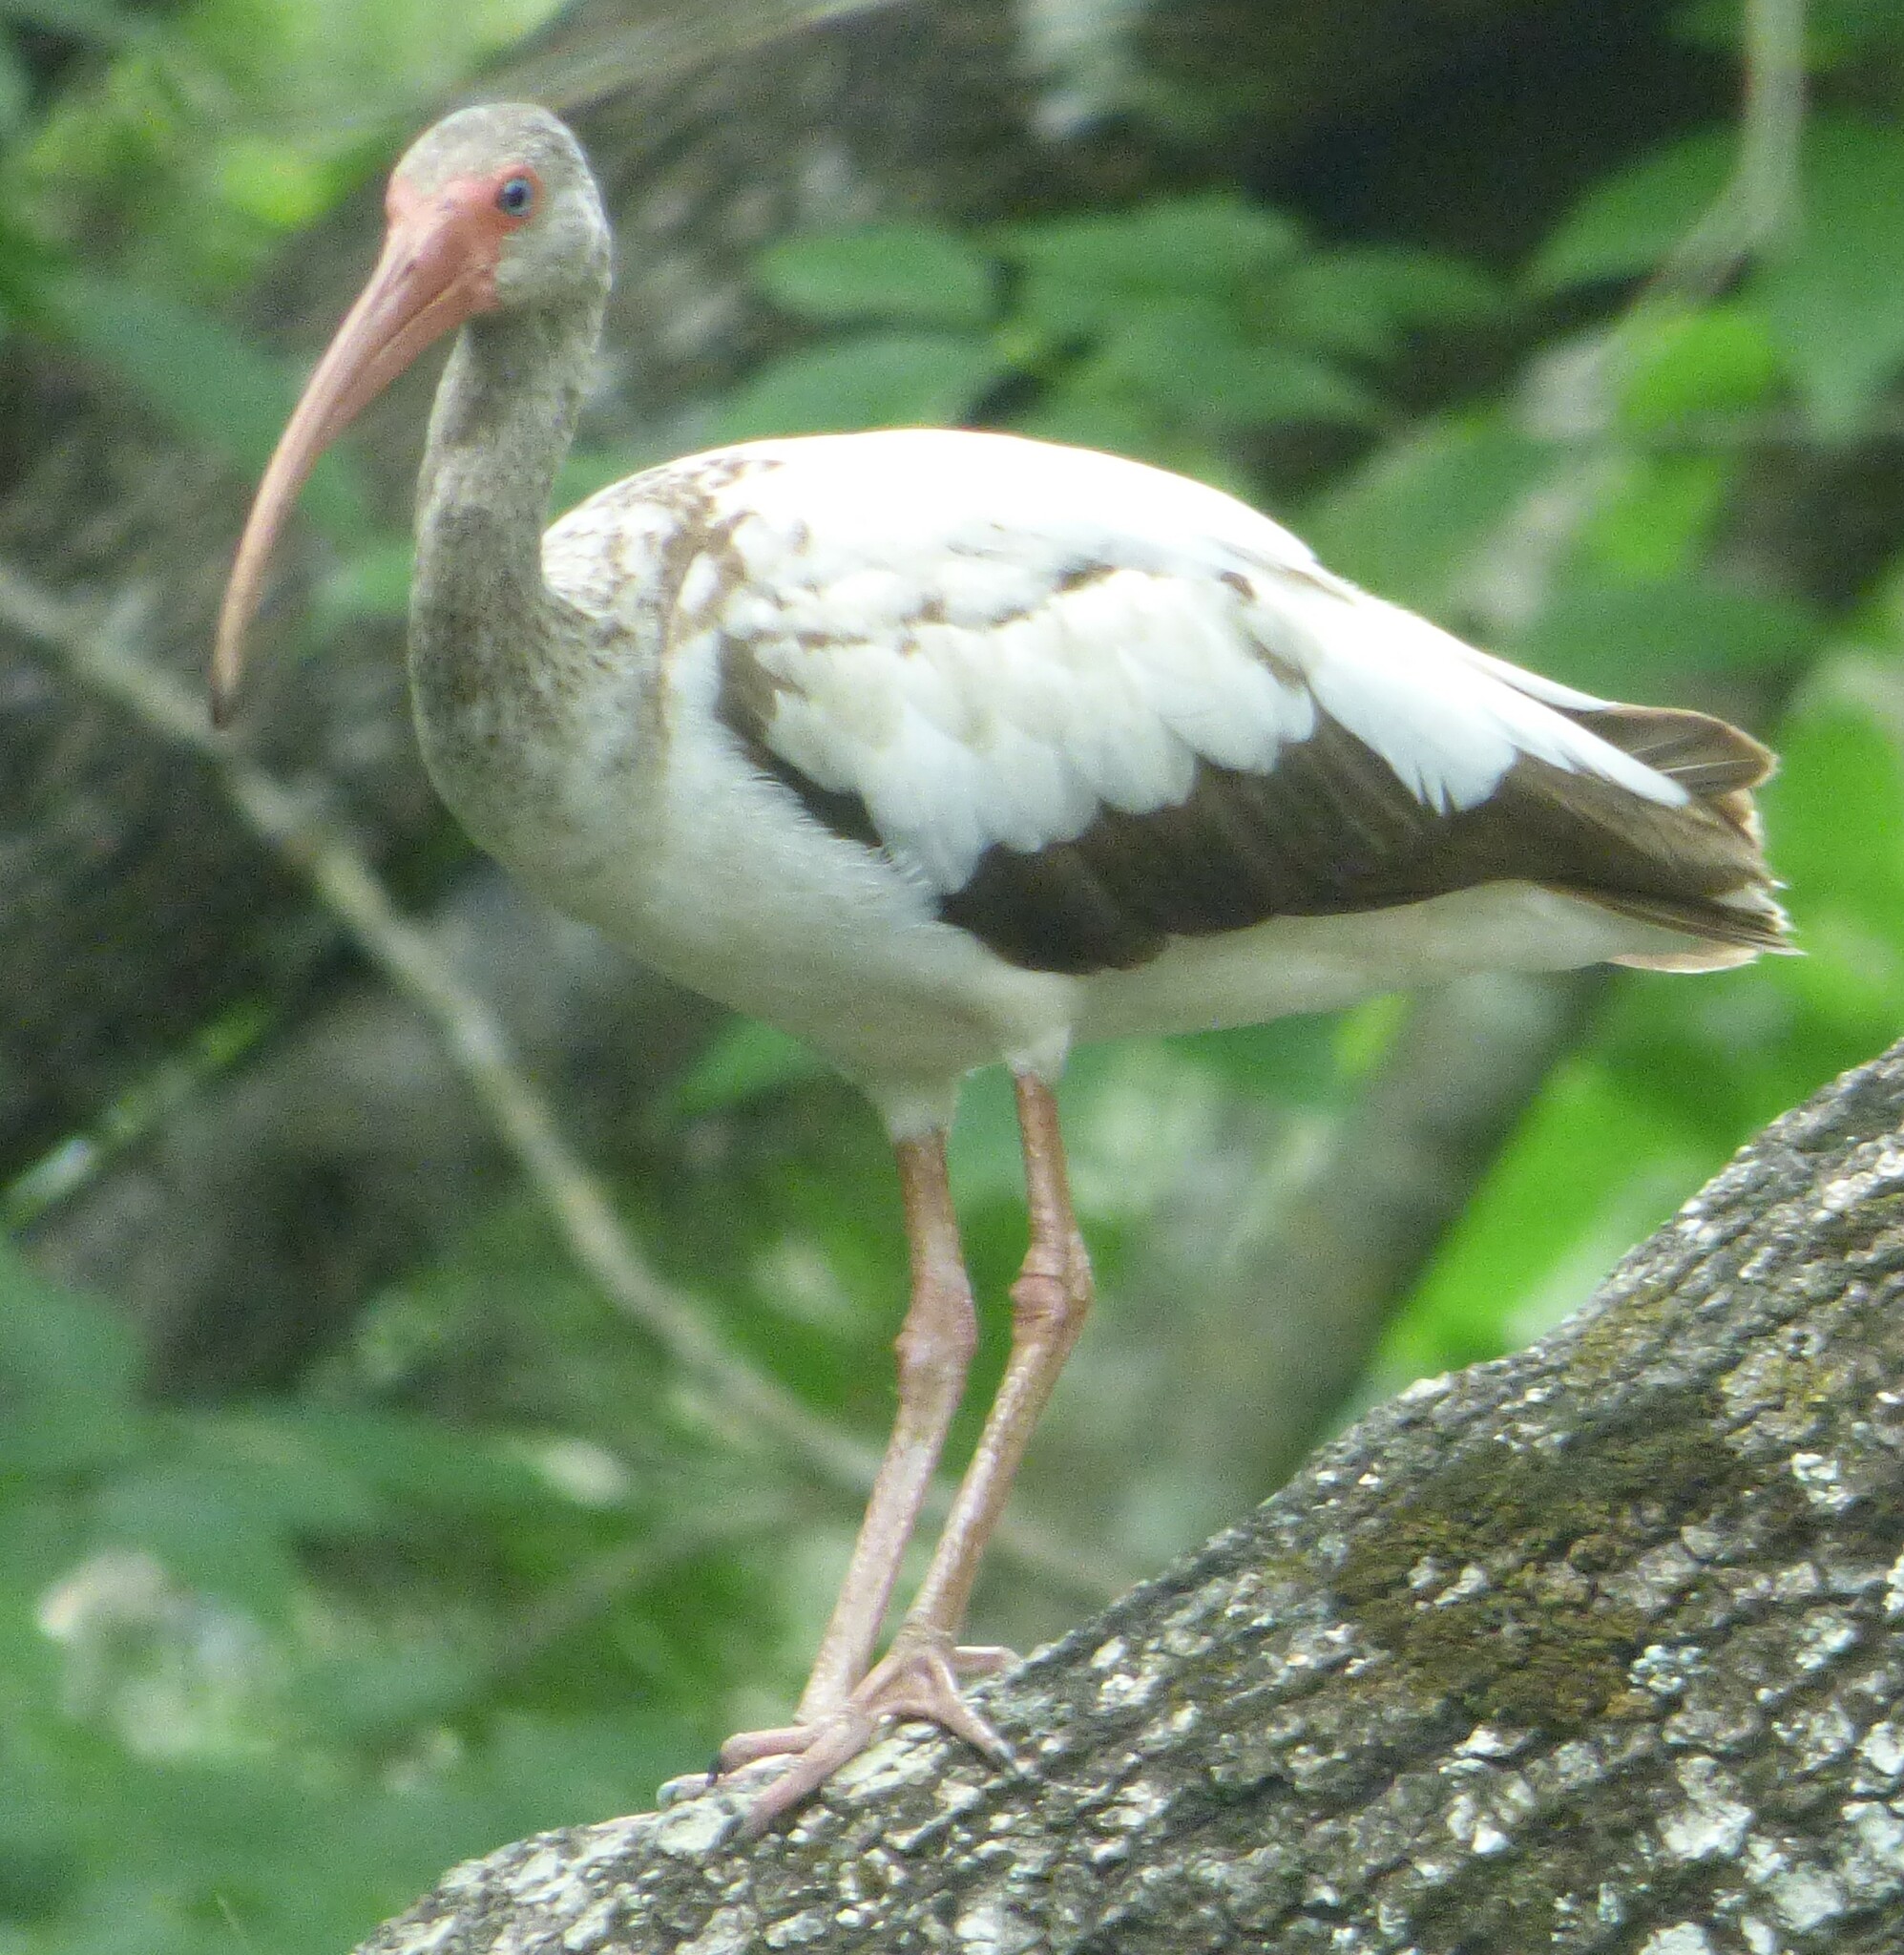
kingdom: Animalia
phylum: Chordata
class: Aves
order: Pelecaniformes
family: Threskiornithidae
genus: Eudocimus
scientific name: Eudocimus albus
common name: White ibis
